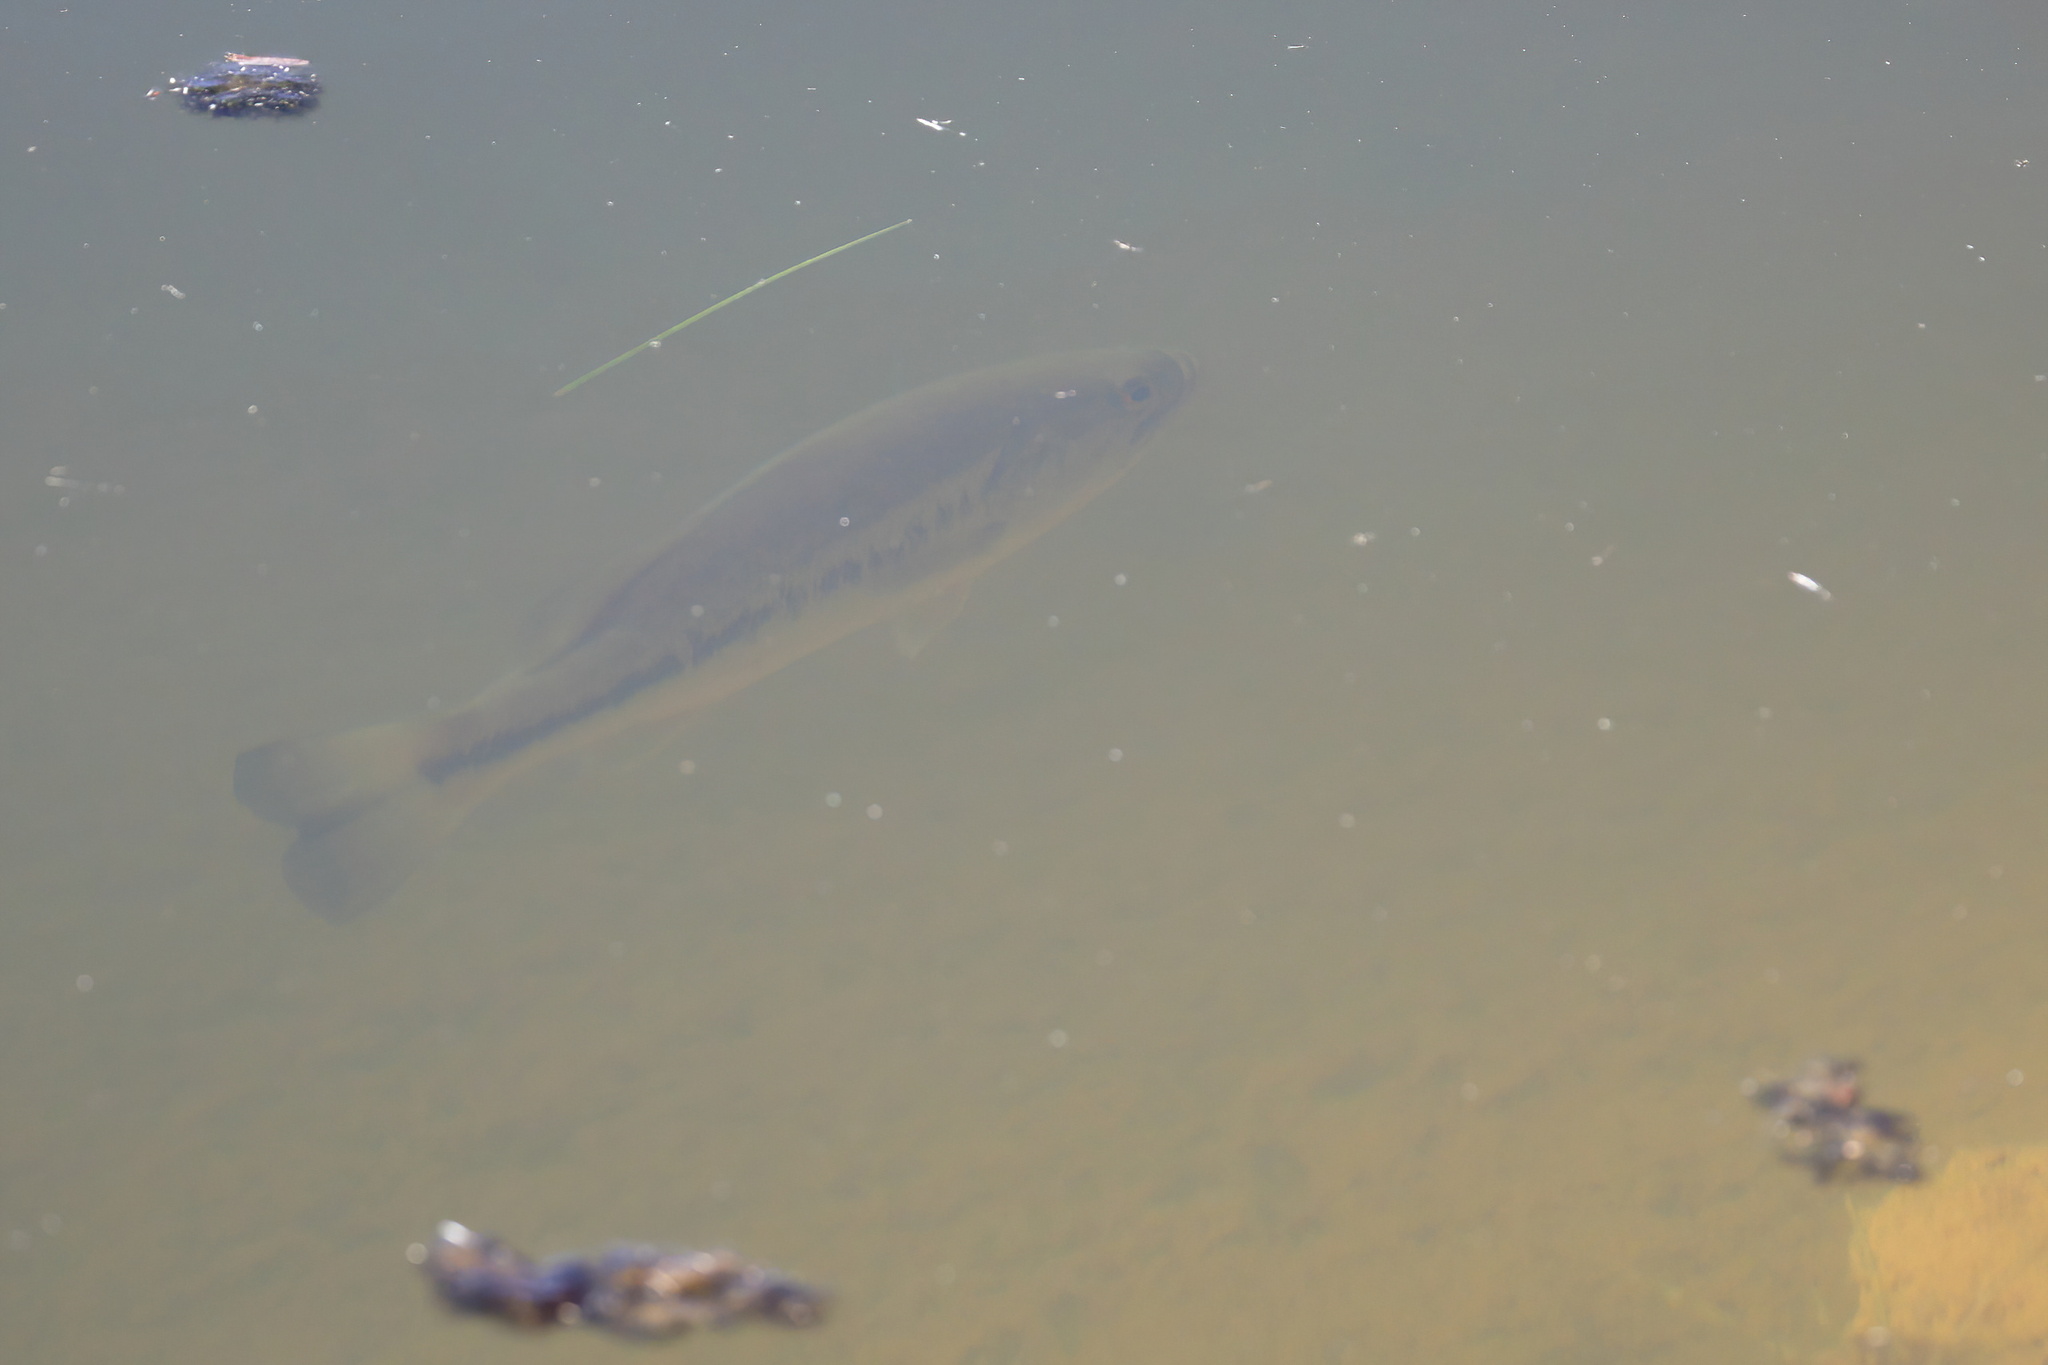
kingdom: Animalia
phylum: Chordata
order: Perciformes
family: Centrarchidae
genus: Micropterus
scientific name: Micropterus
